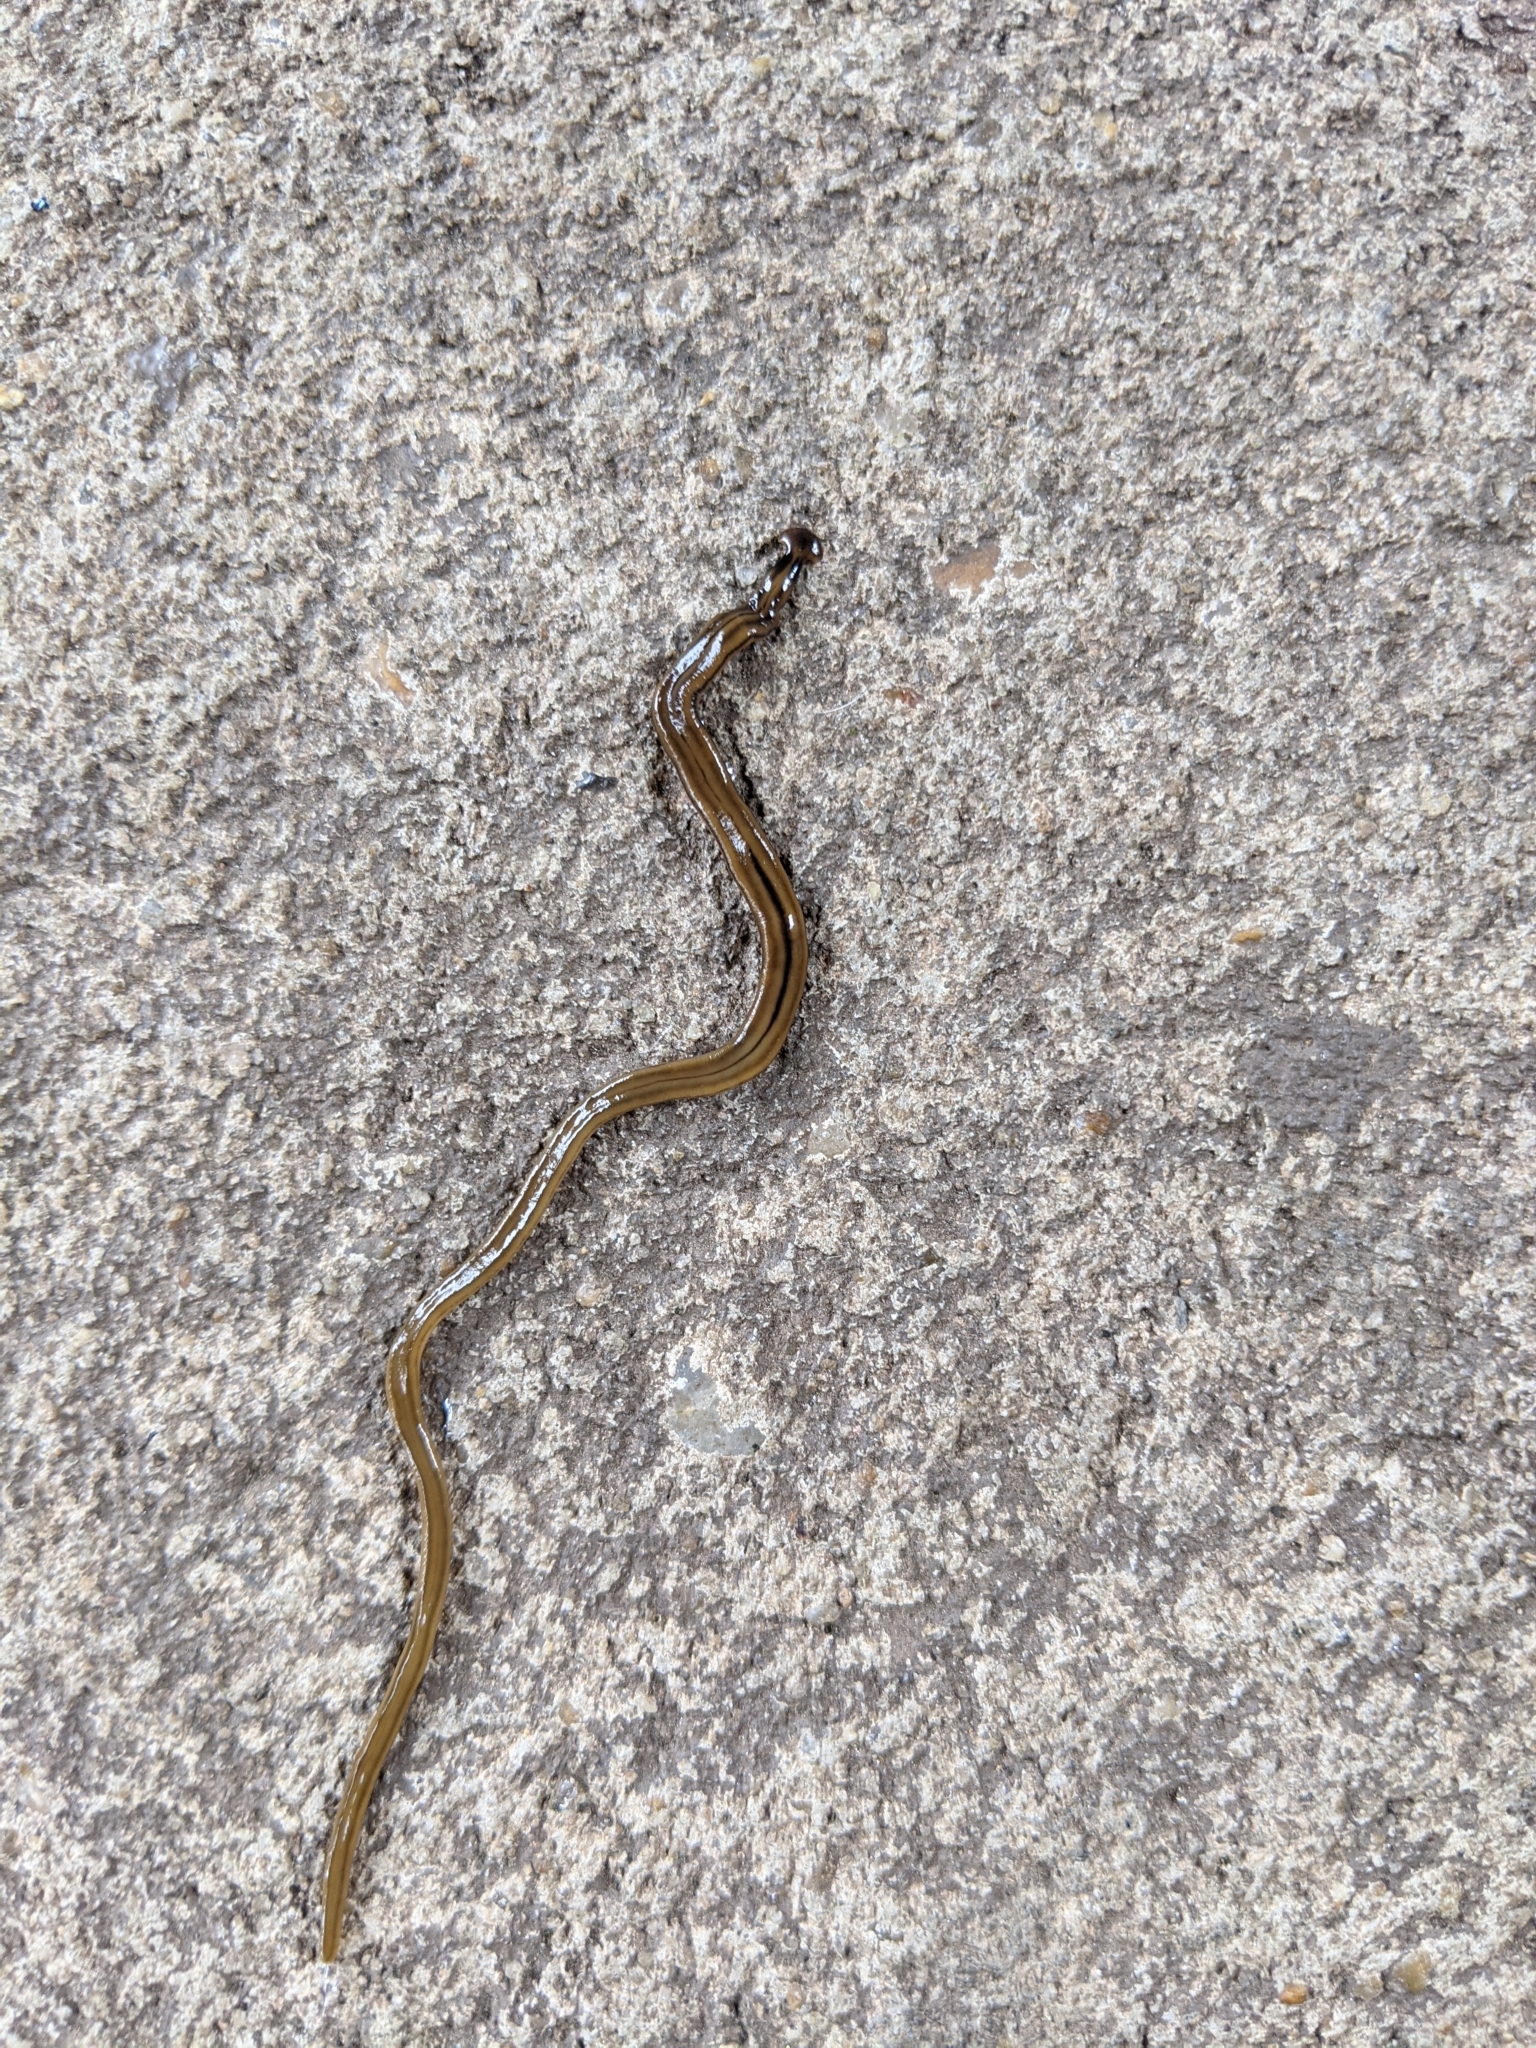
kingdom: Animalia
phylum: Platyhelminthes
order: Tricladida
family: Geoplanidae
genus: Bipalium
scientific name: Bipalium kewense
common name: Hammerhead flatworm
